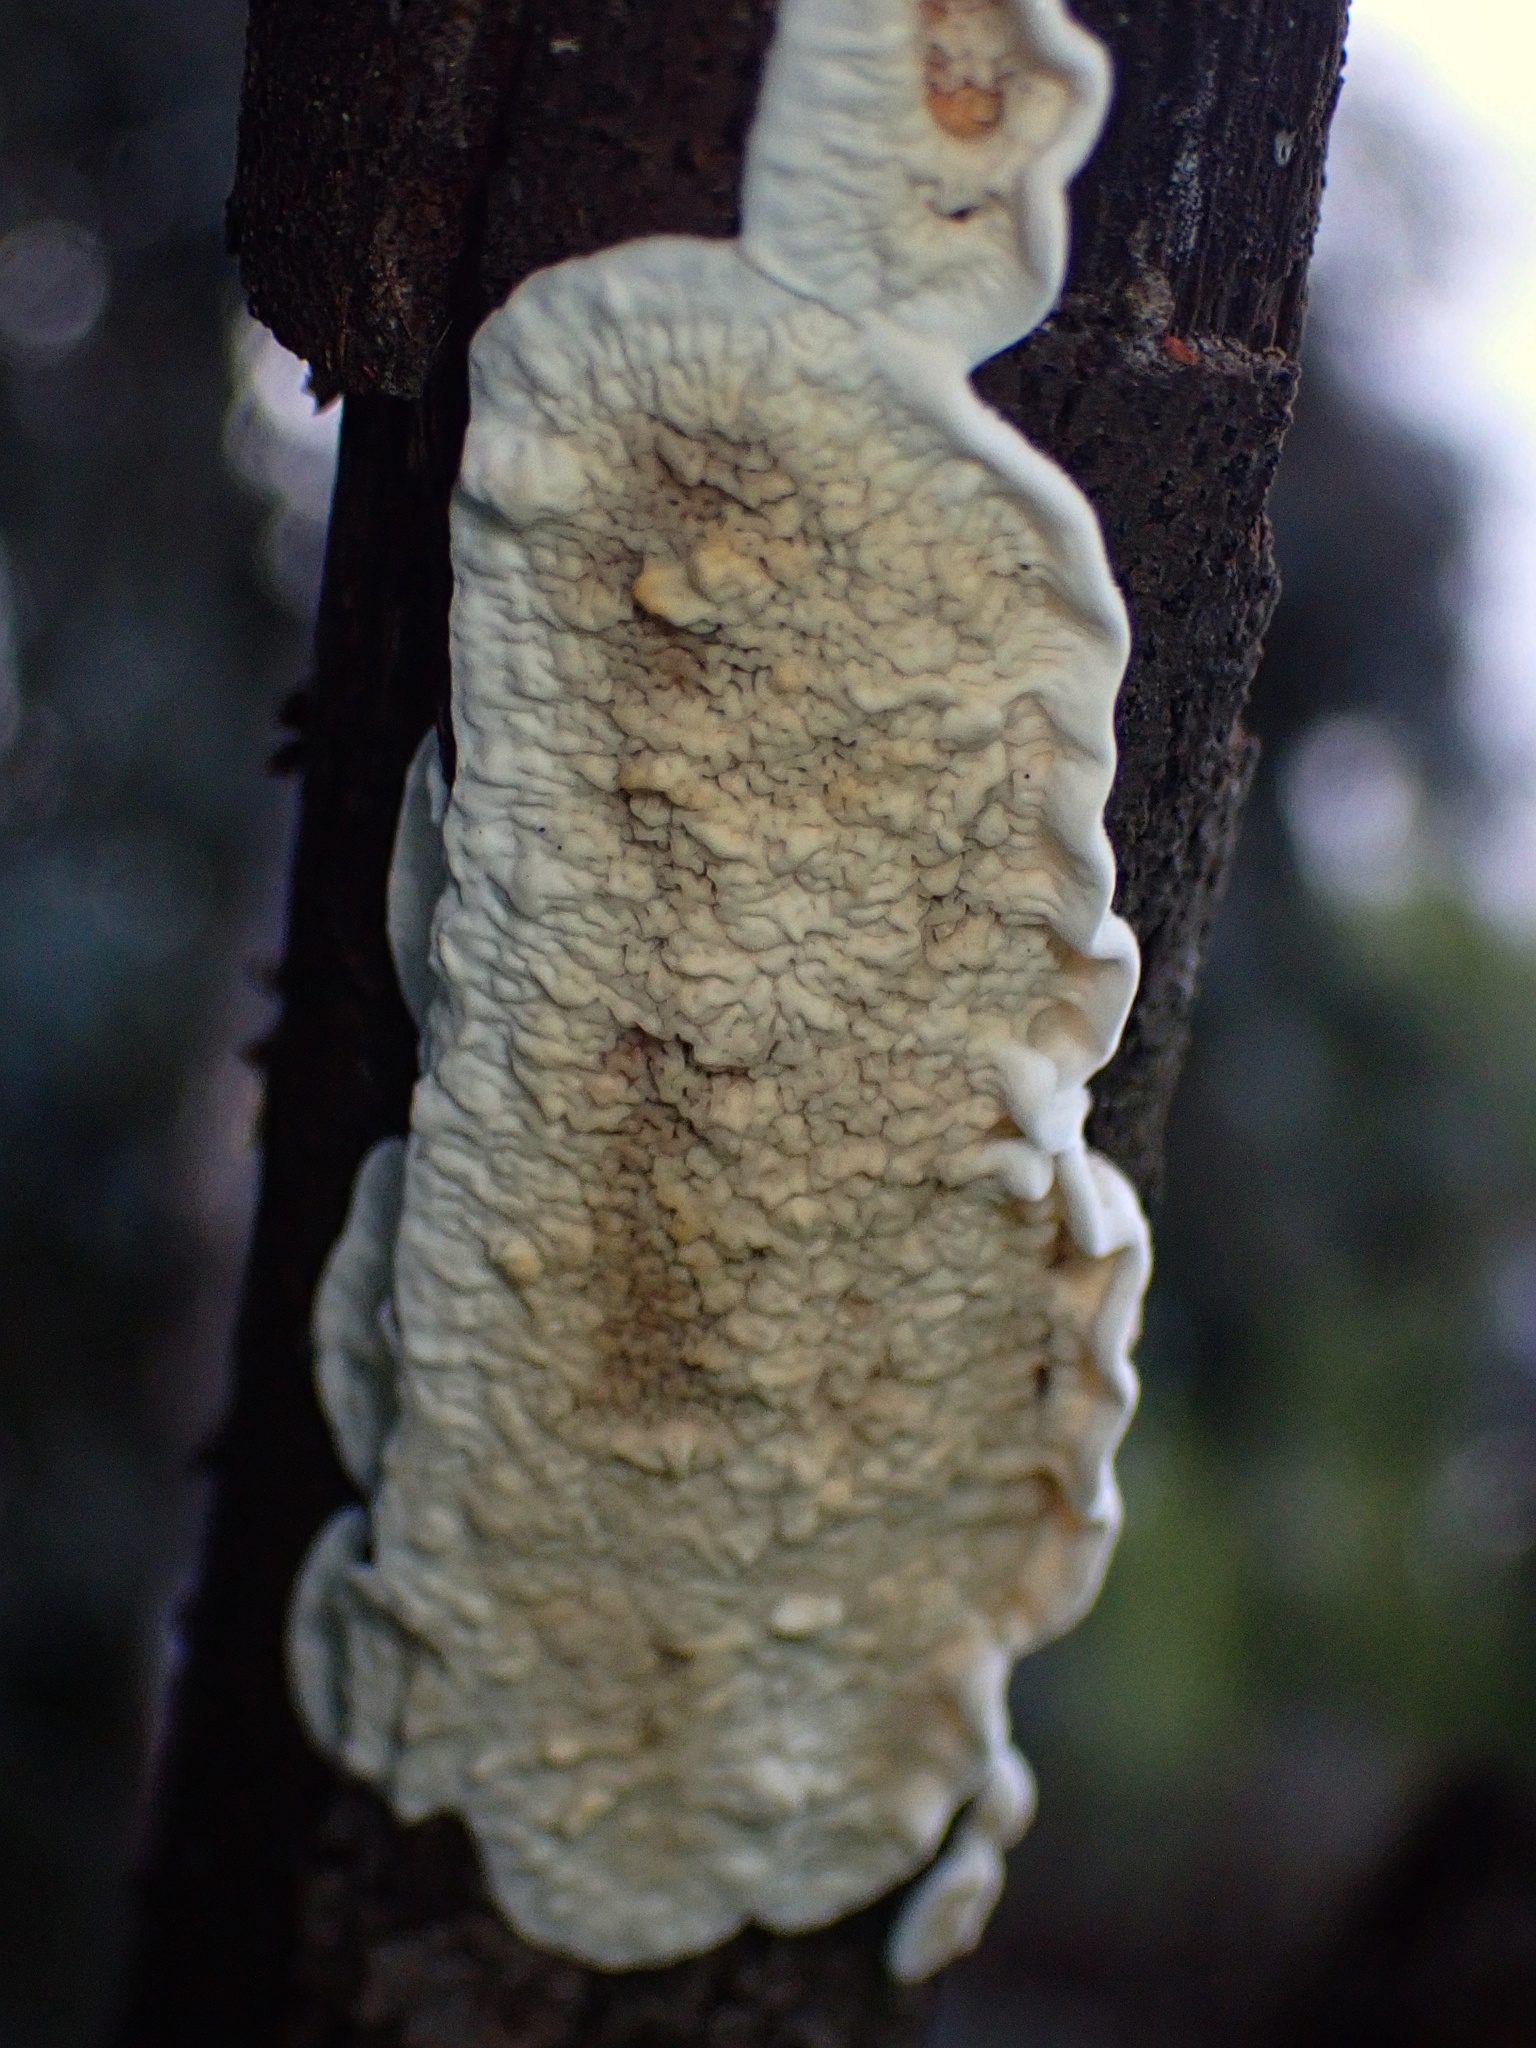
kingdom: Fungi
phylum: Basidiomycota
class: Agaricomycetes
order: Polyporales
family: Irpicaceae
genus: Byssomerulius
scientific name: Byssomerulius corium
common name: Netted crust
